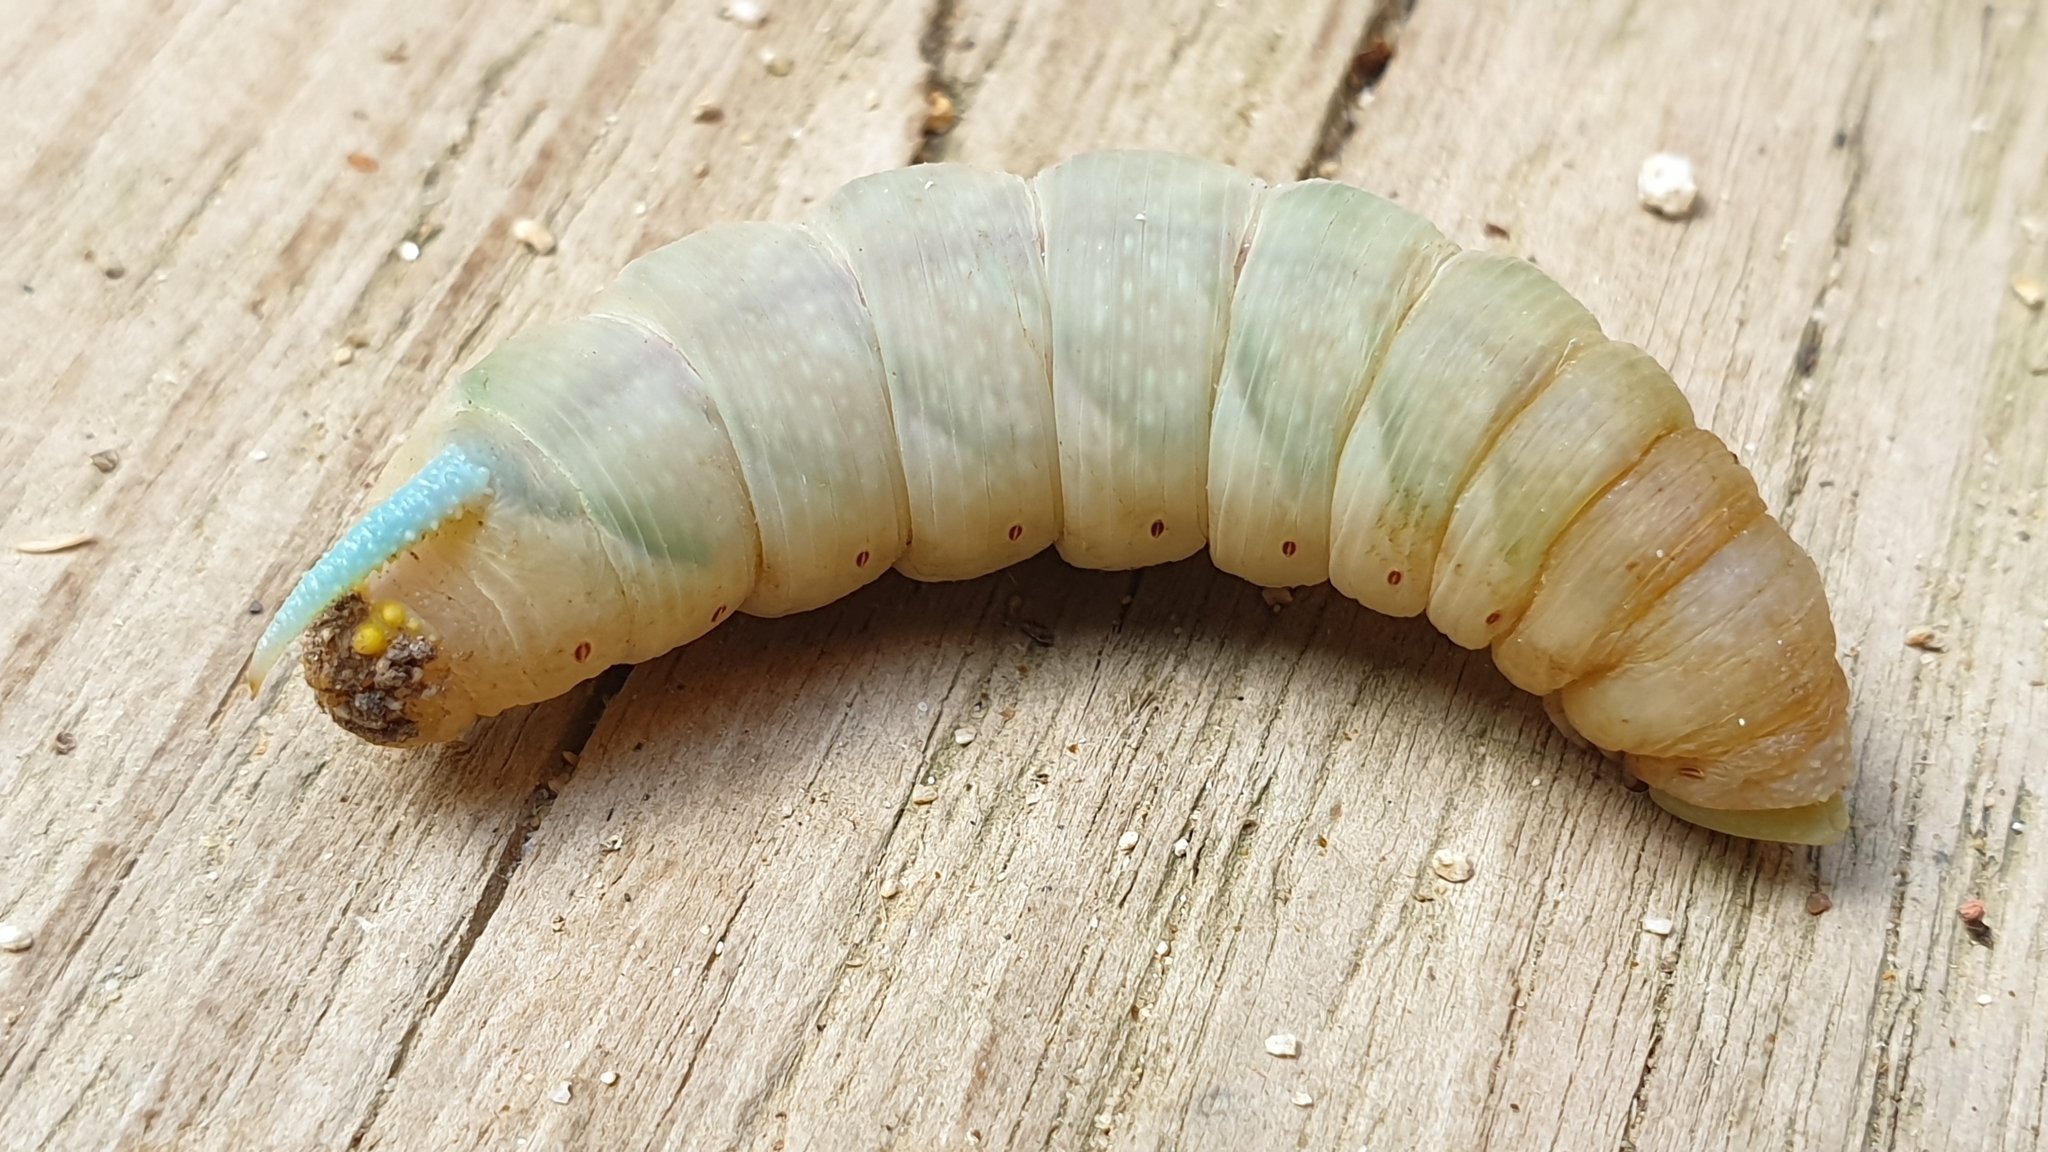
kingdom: Animalia
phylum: Arthropoda
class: Insecta
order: Lepidoptera
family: Sphingidae
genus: Mimas
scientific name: Mimas tiliae
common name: Lime hawk-moth
